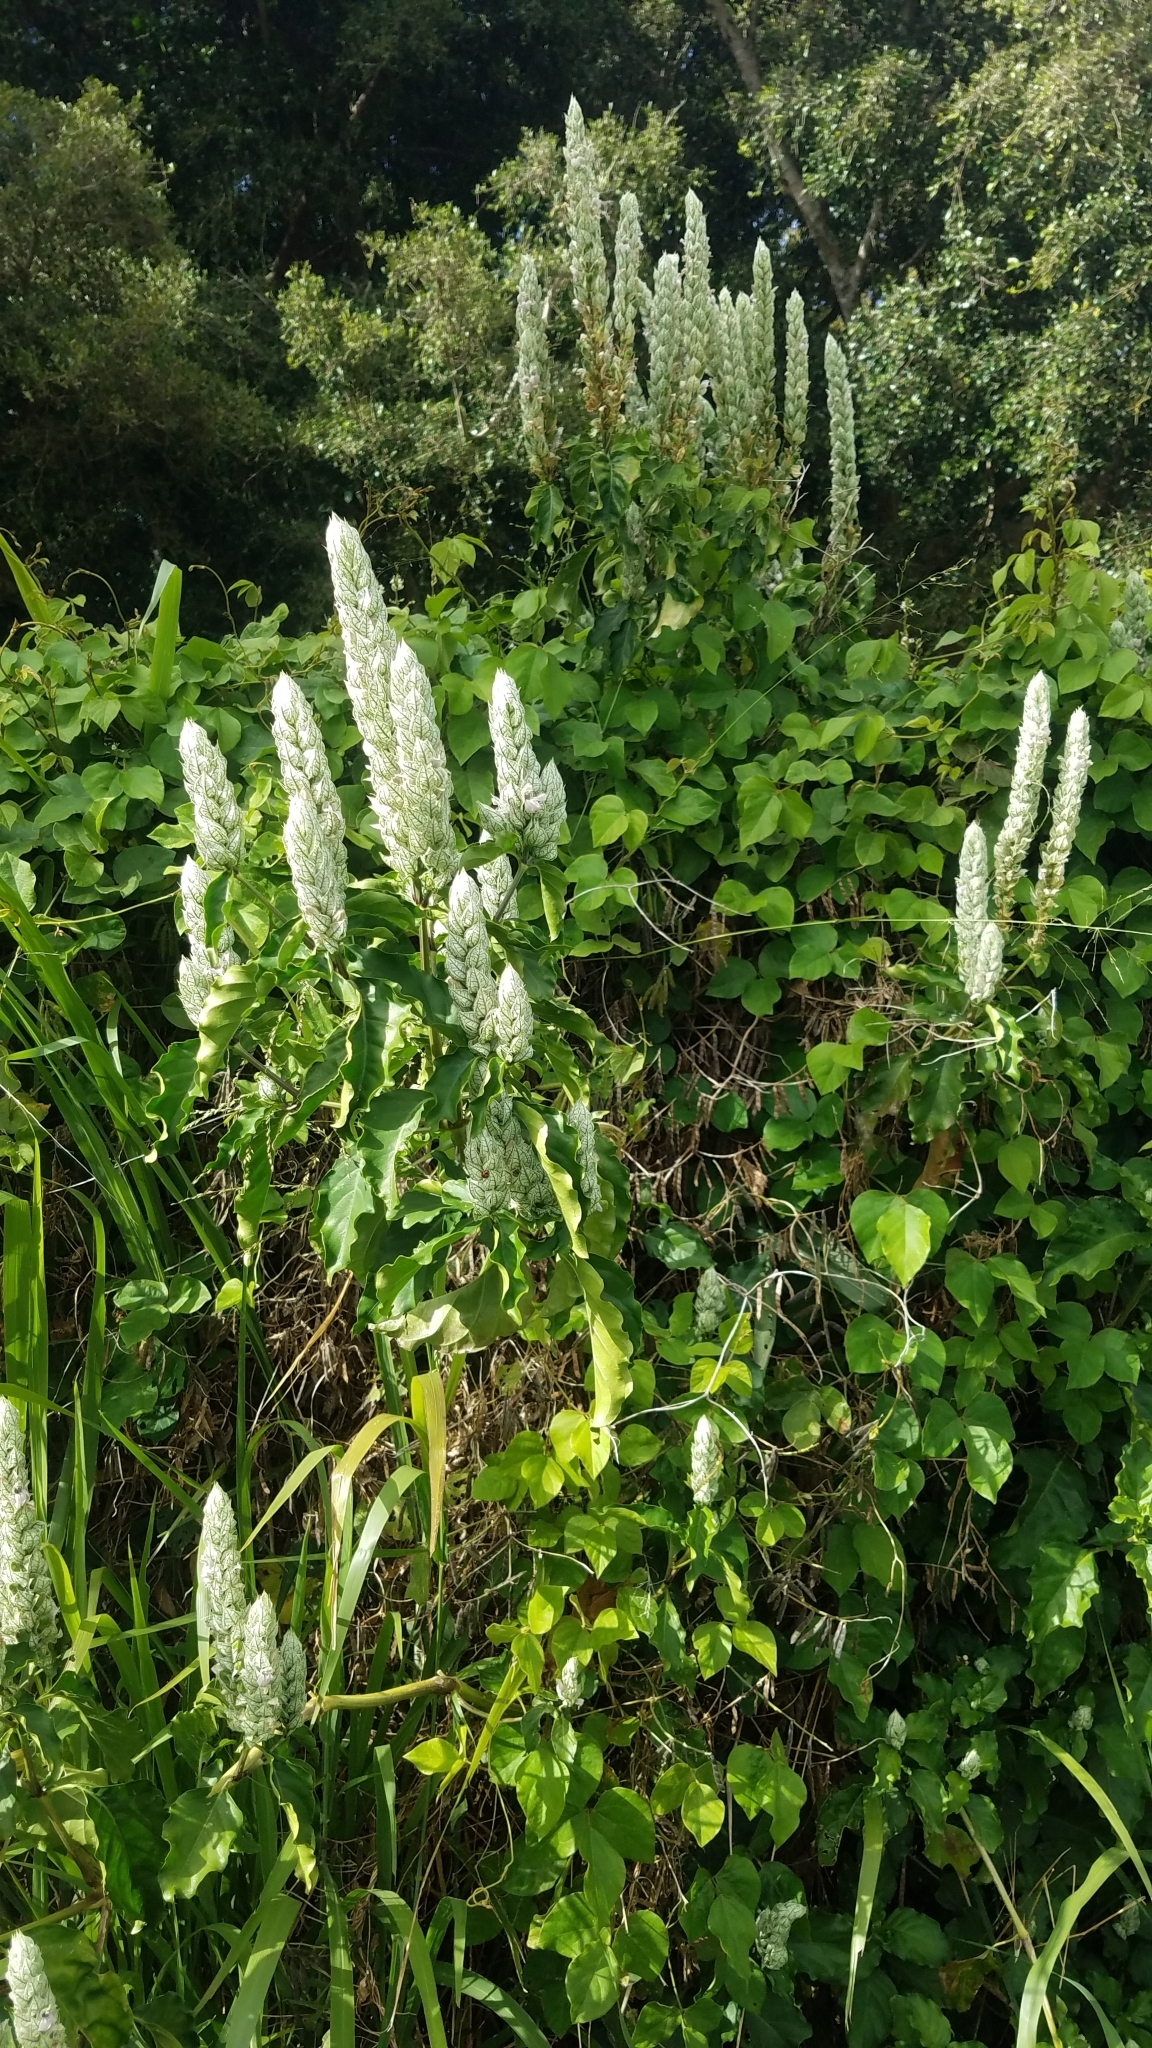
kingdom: Plantae
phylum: Tracheophyta
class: Magnoliopsida
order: Lamiales
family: Acanthaceae
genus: Justicia
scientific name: Justicia betonica
